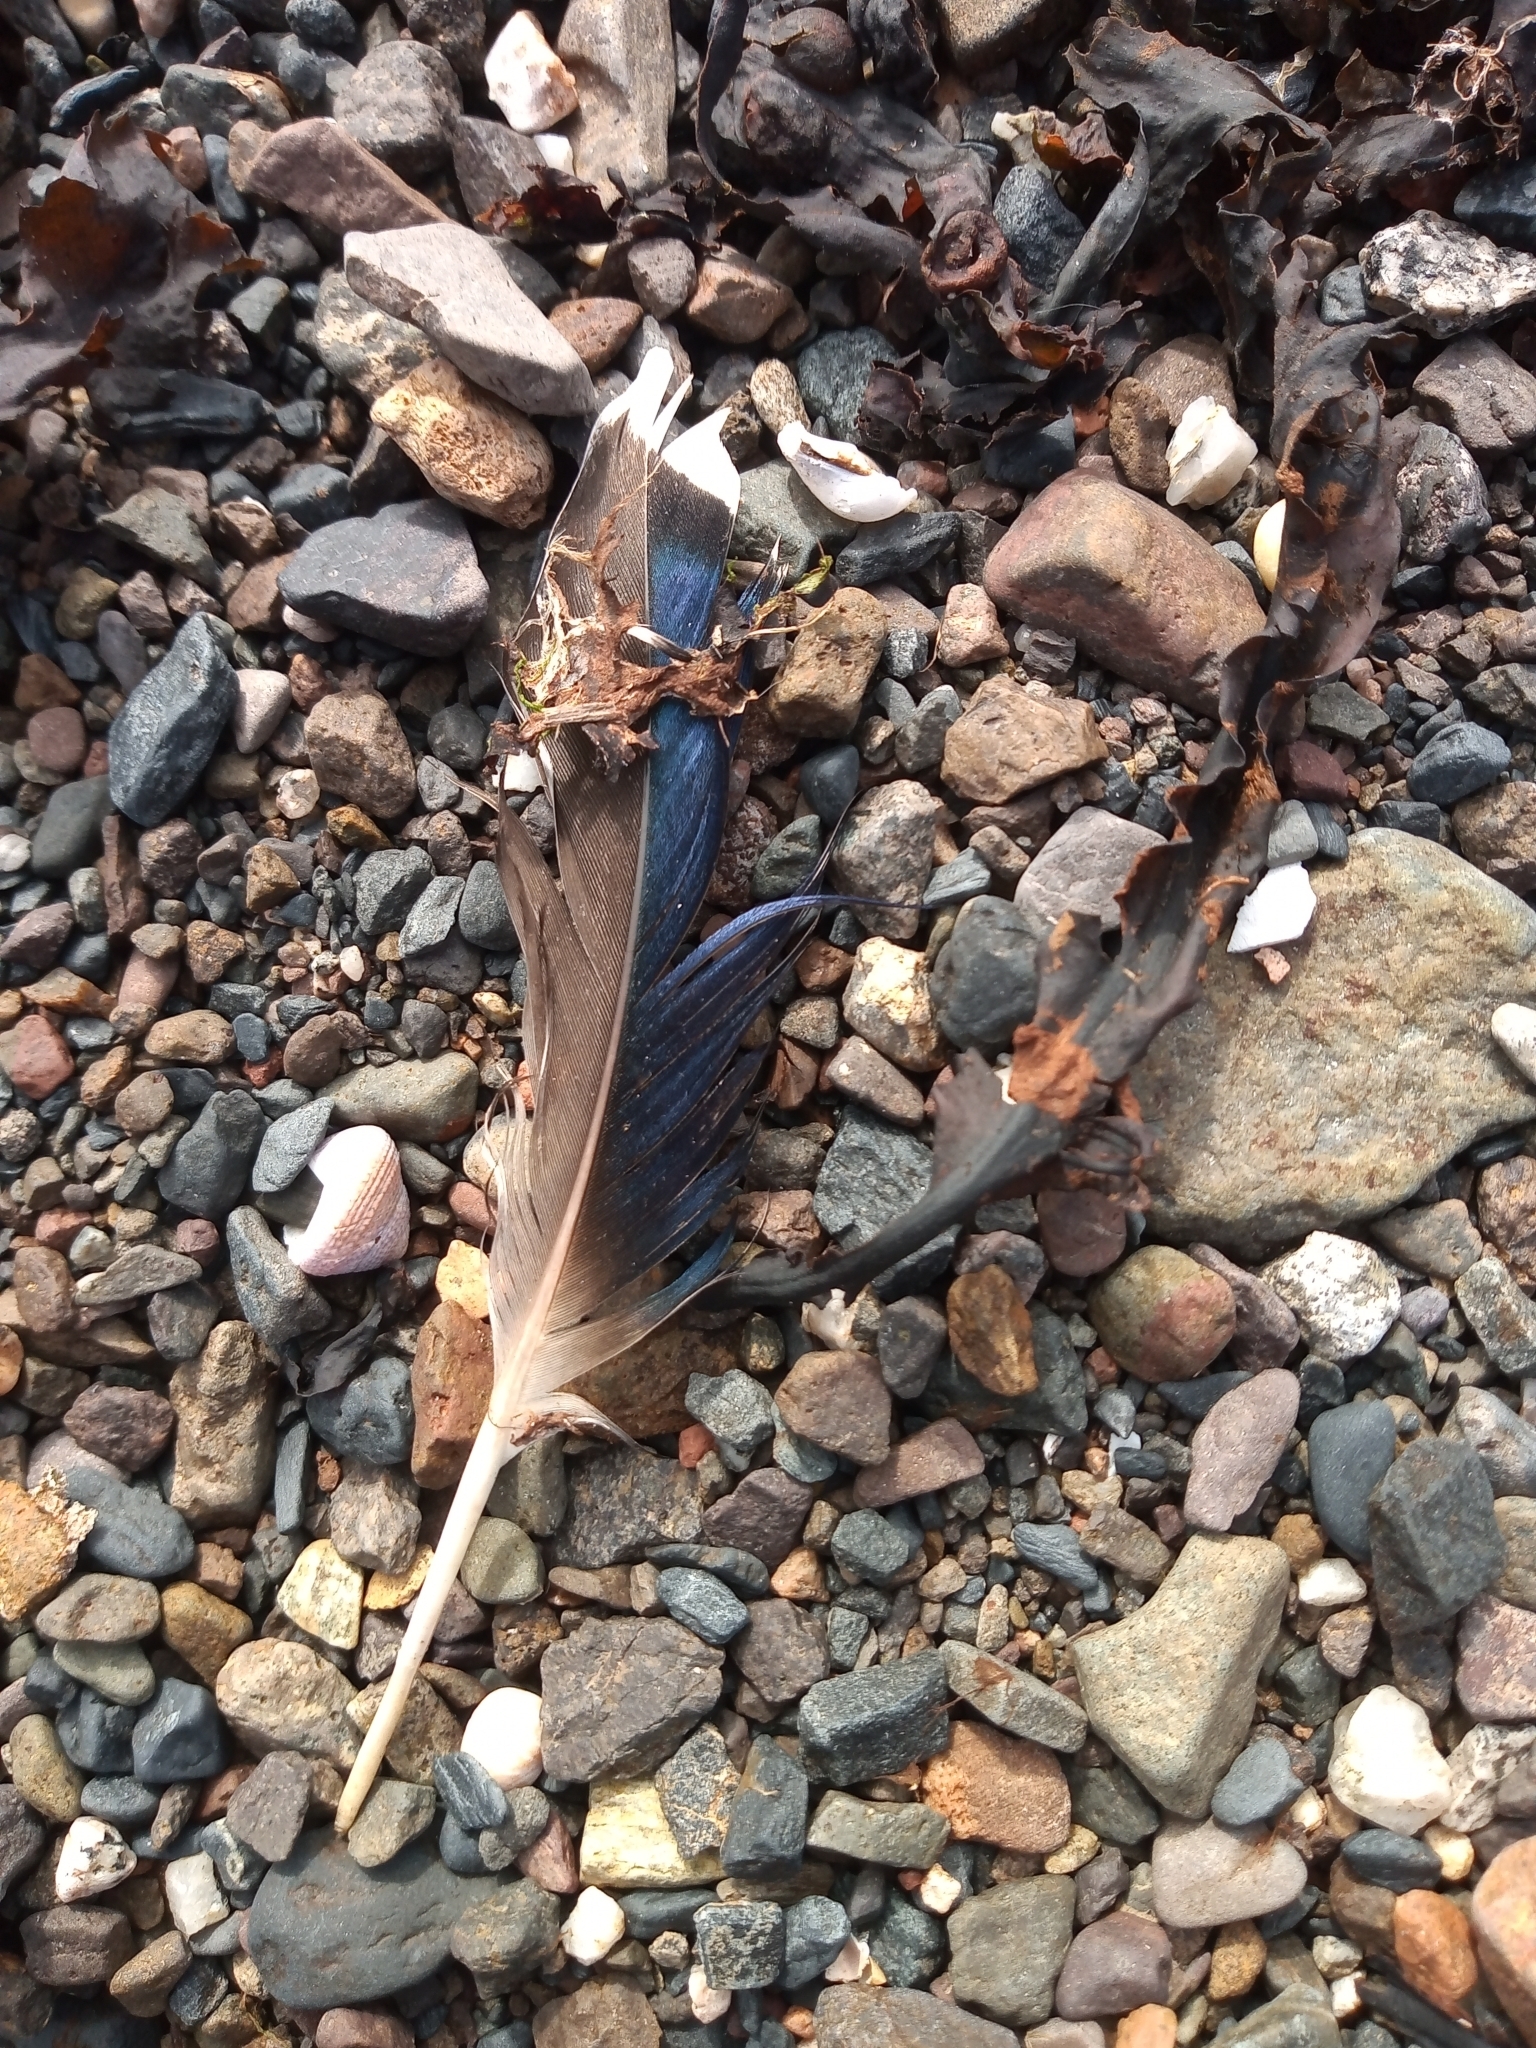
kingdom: Animalia
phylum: Chordata
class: Aves
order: Anseriformes
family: Anatidae
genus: Anas
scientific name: Anas platyrhynchos
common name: Mallard
